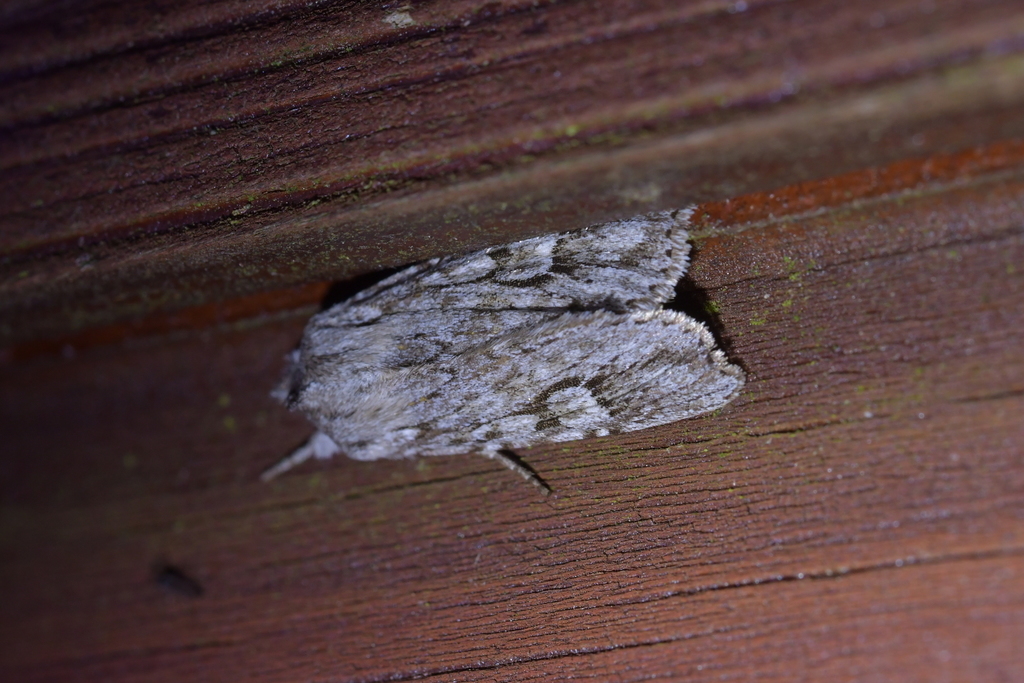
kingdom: Animalia
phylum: Arthropoda
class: Insecta
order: Lepidoptera
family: Noctuidae
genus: Physetica
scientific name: Physetica sequens
